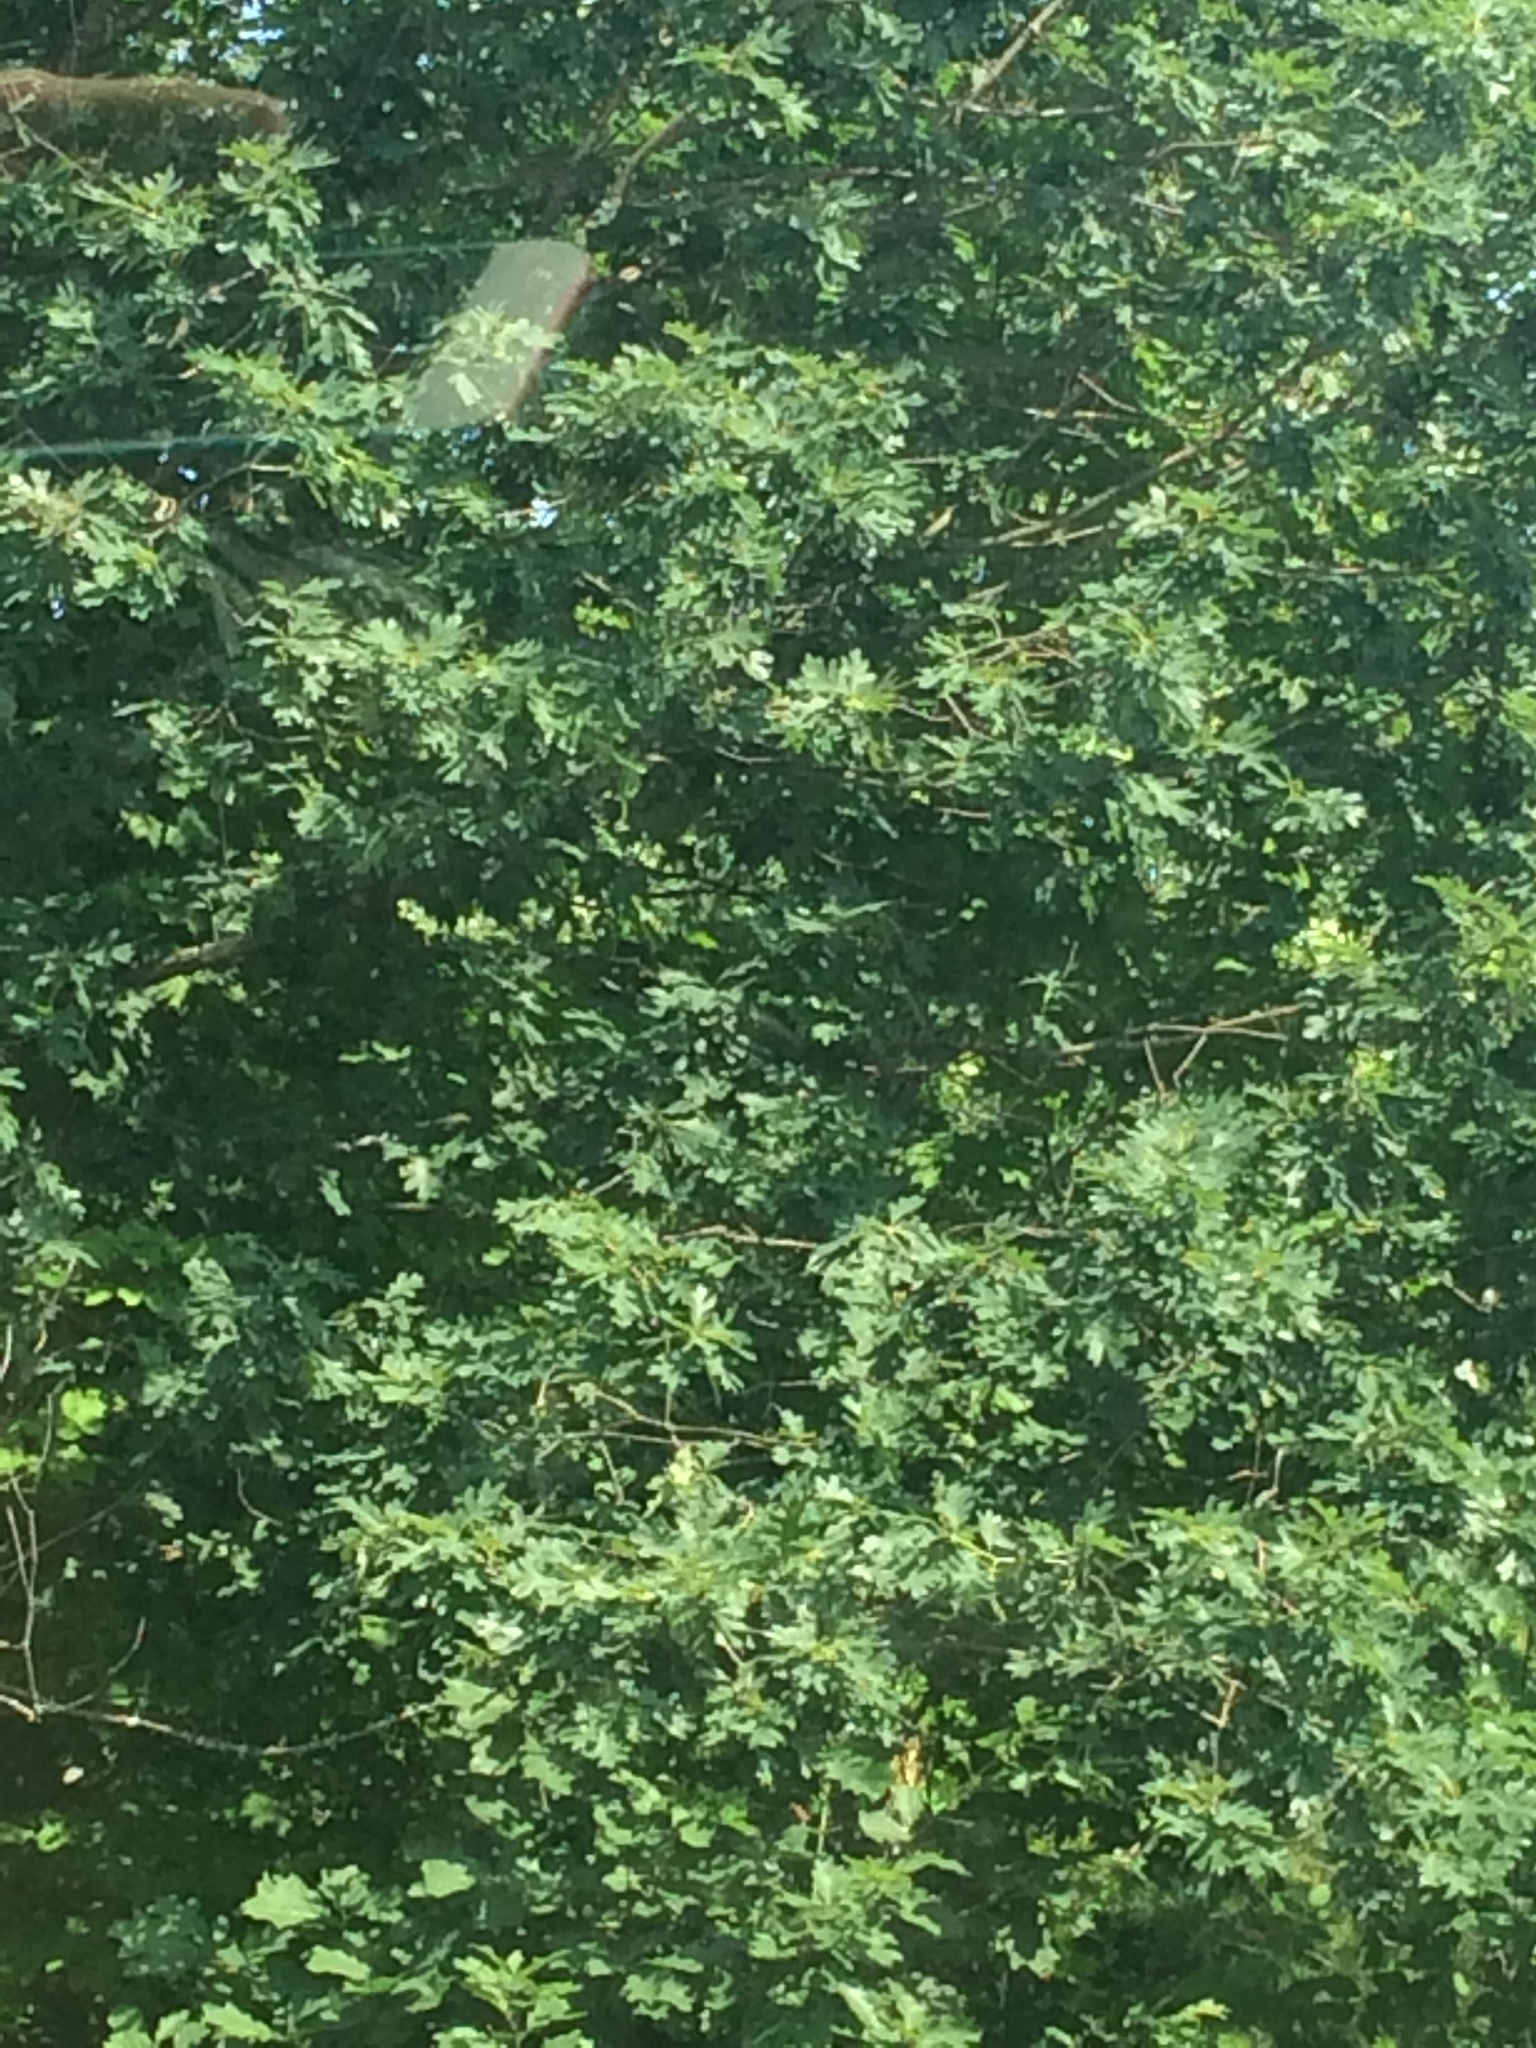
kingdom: Plantae
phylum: Tracheophyta
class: Magnoliopsida
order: Fagales
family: Fagaceae
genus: Quercus
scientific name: Quercus alba
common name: White oak
